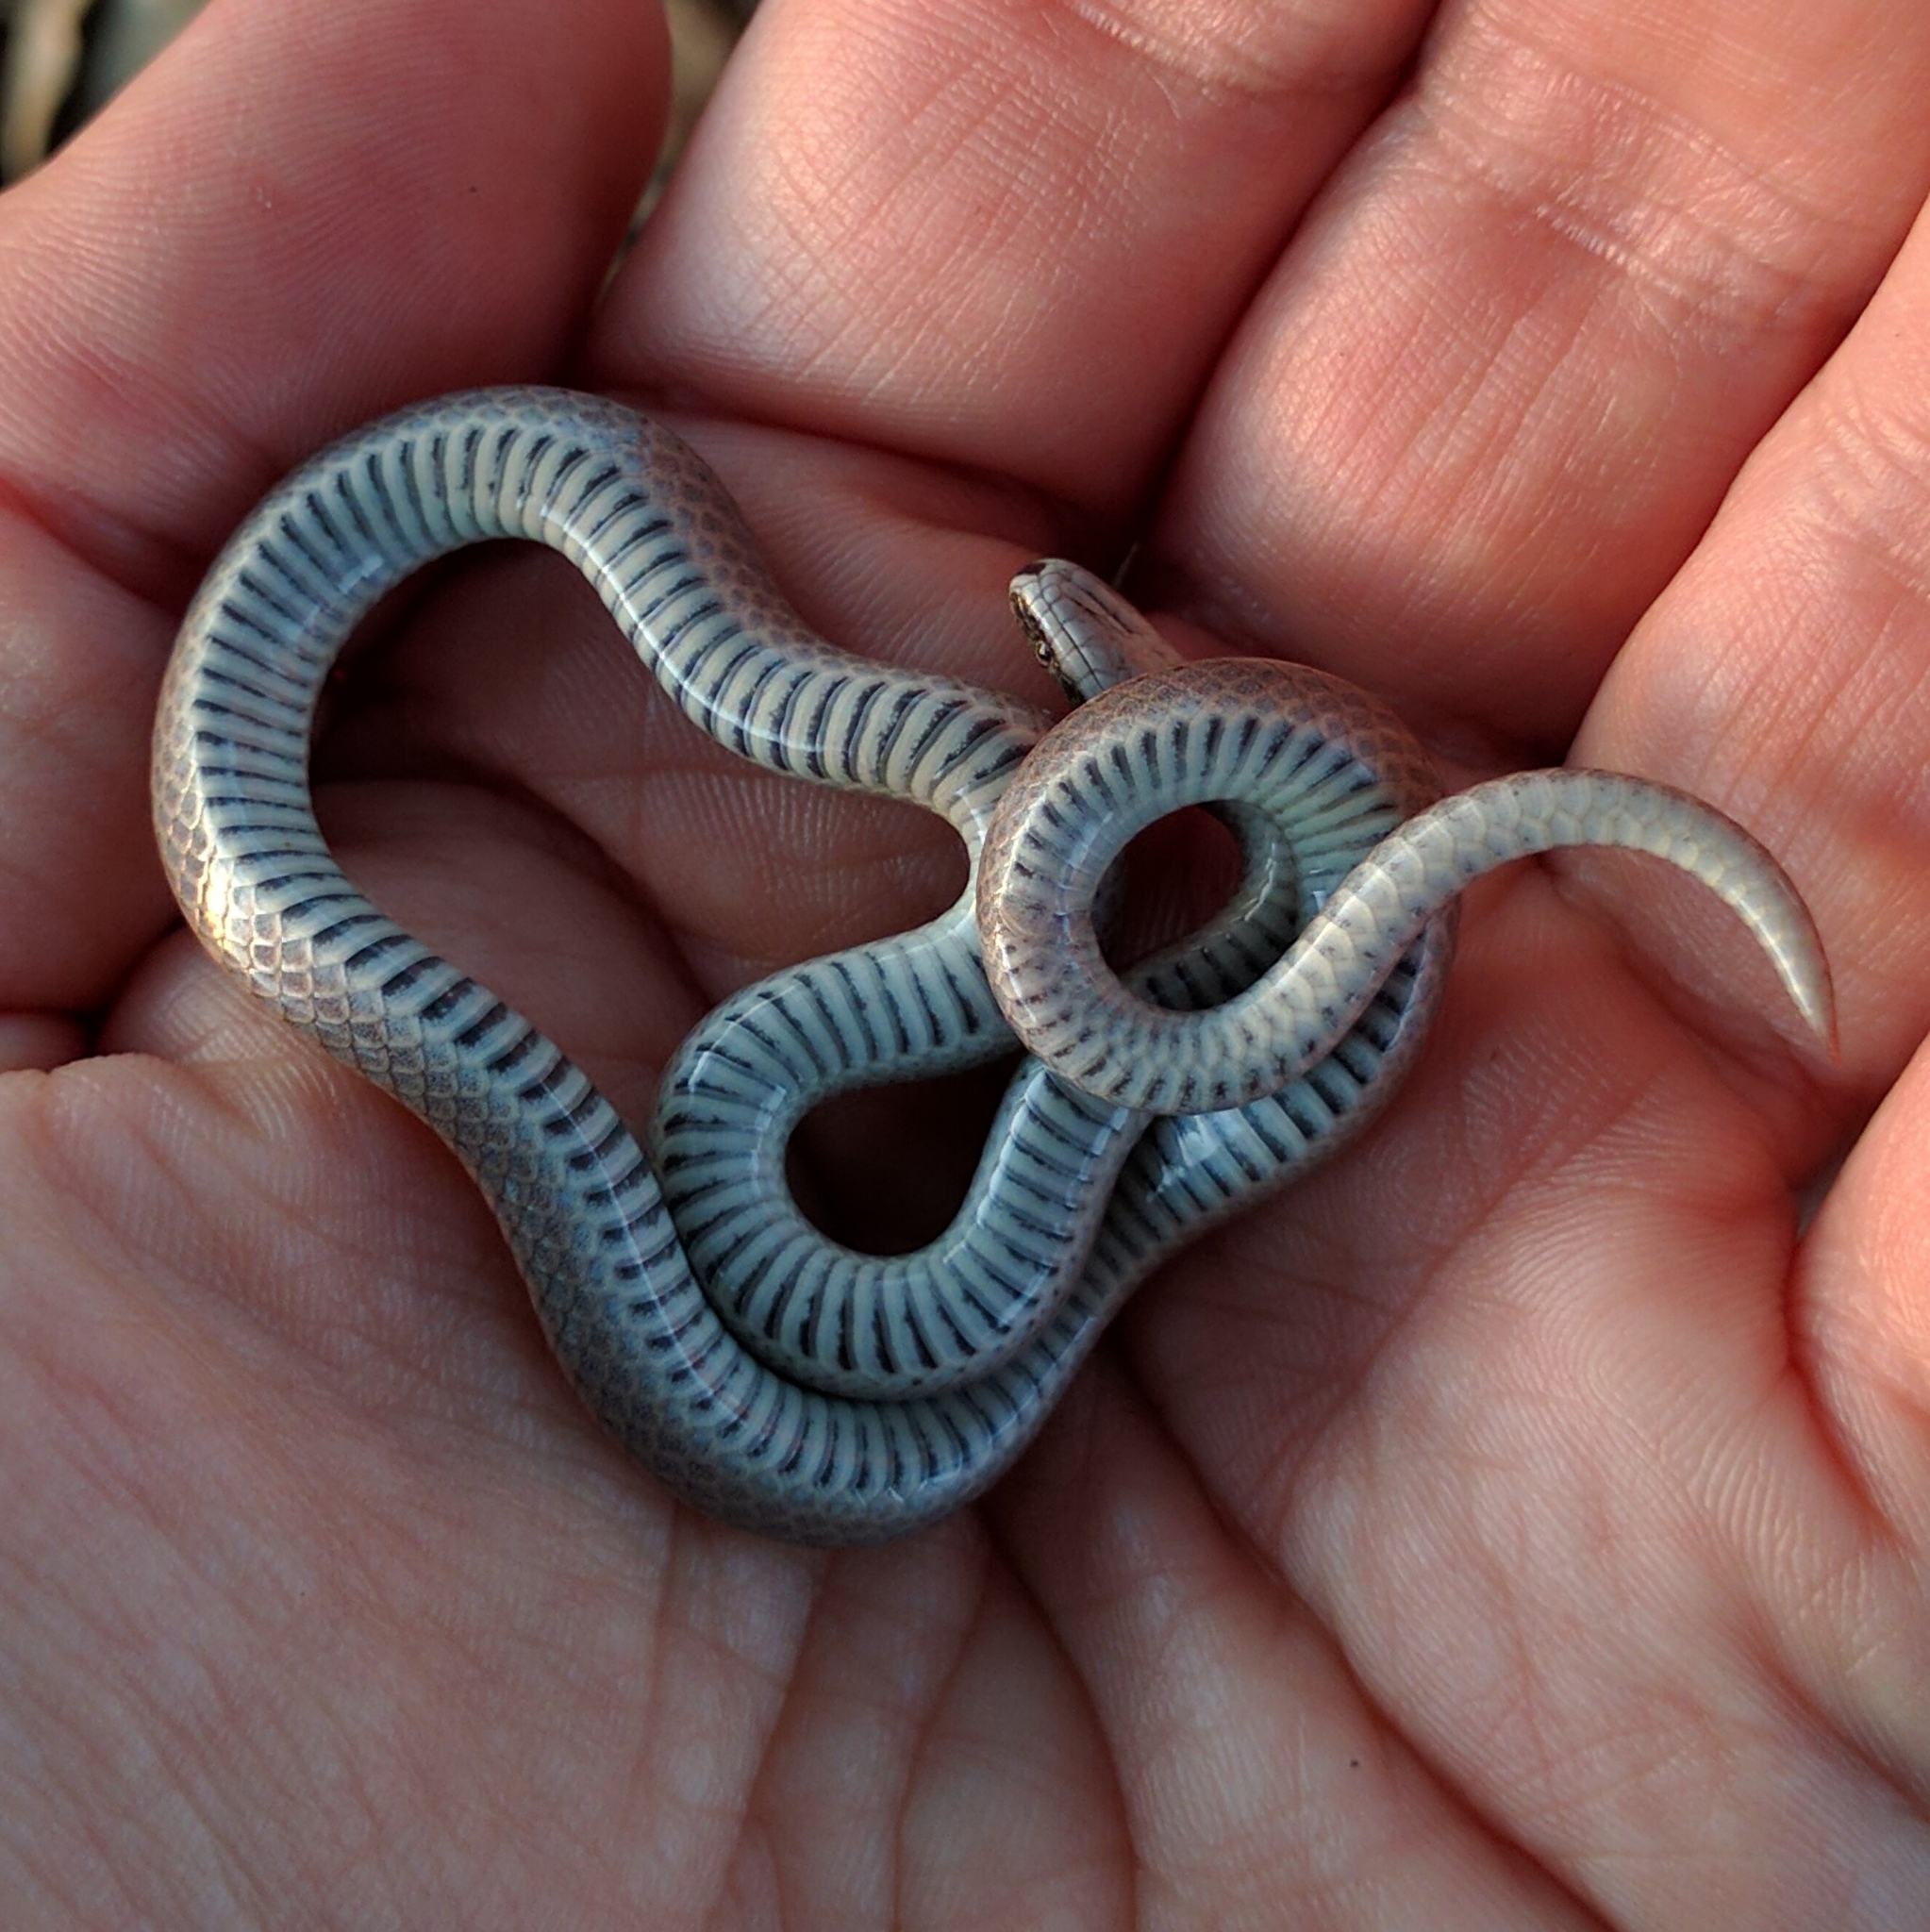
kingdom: Animalia
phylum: Chordata
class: Squamata
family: Colubridae
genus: Contia
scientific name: Contia tenuis
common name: Sharptail snake
